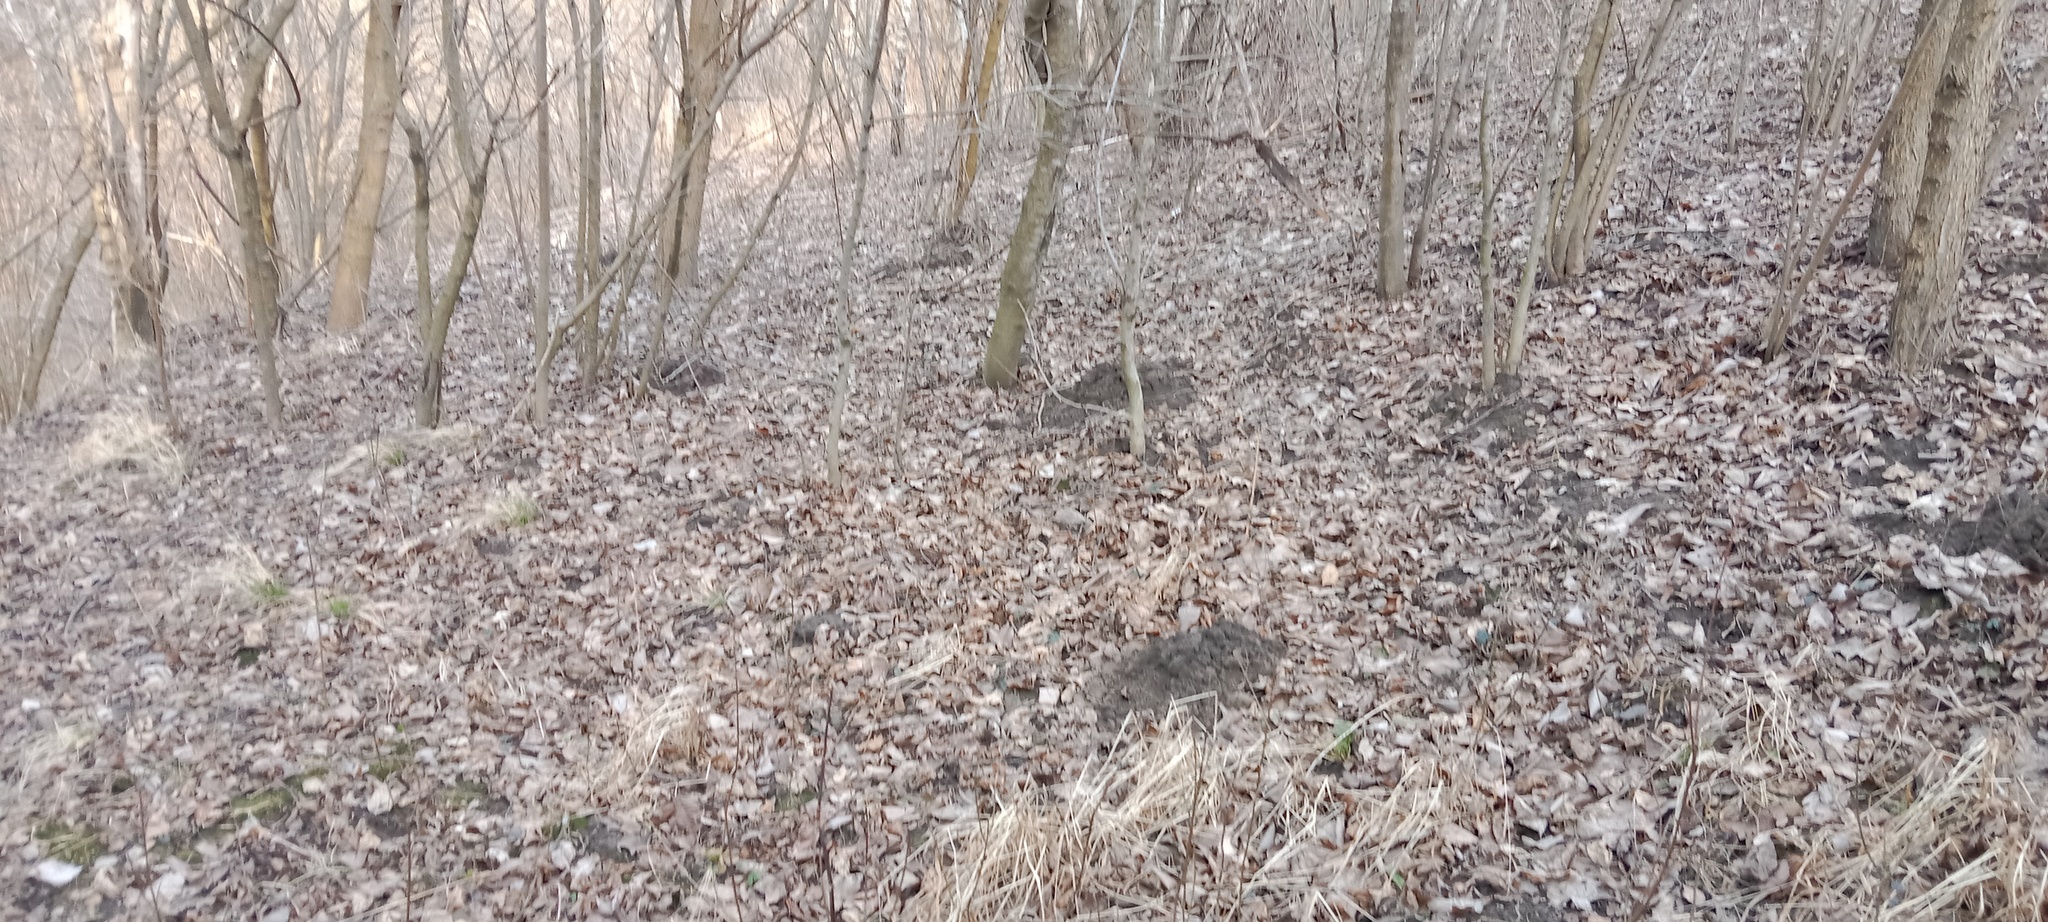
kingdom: Animalia
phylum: Chordata
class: Mammalia
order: Soricomorpha
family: Talpidae
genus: Talpa
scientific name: Talpa europaea
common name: European mole
